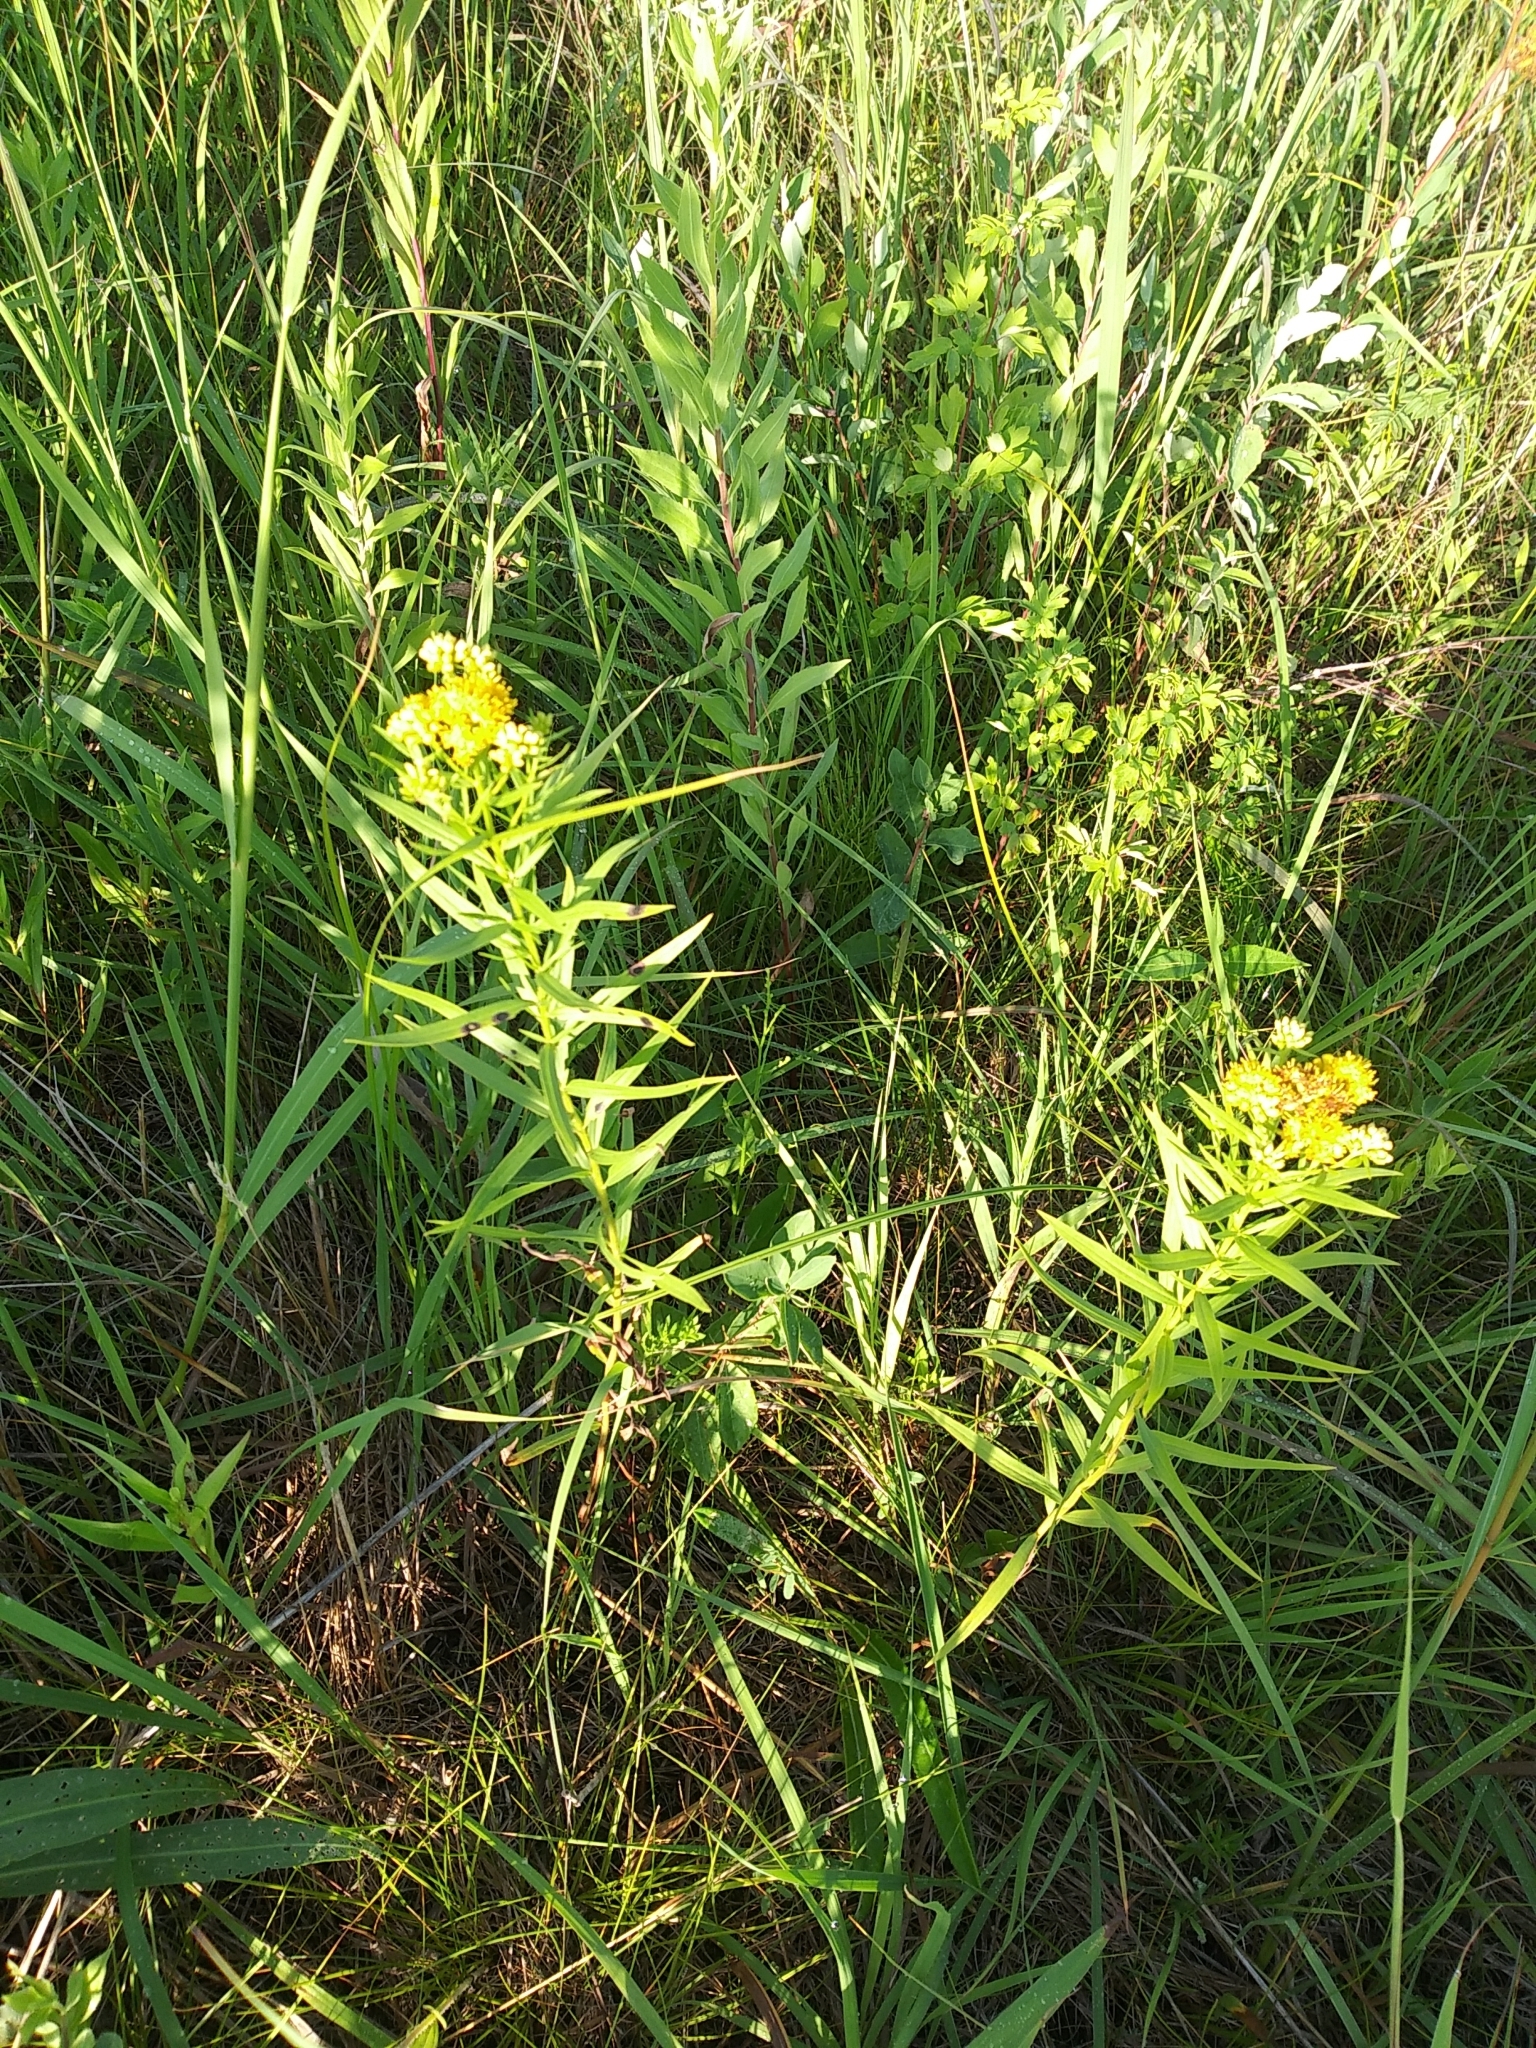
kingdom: Plantae
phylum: Tracheophyta
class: Magnoliopsida
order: Asterales
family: Asteraceae
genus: Euthamia
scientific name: Euthamia graminifolia
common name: Common goldentop
